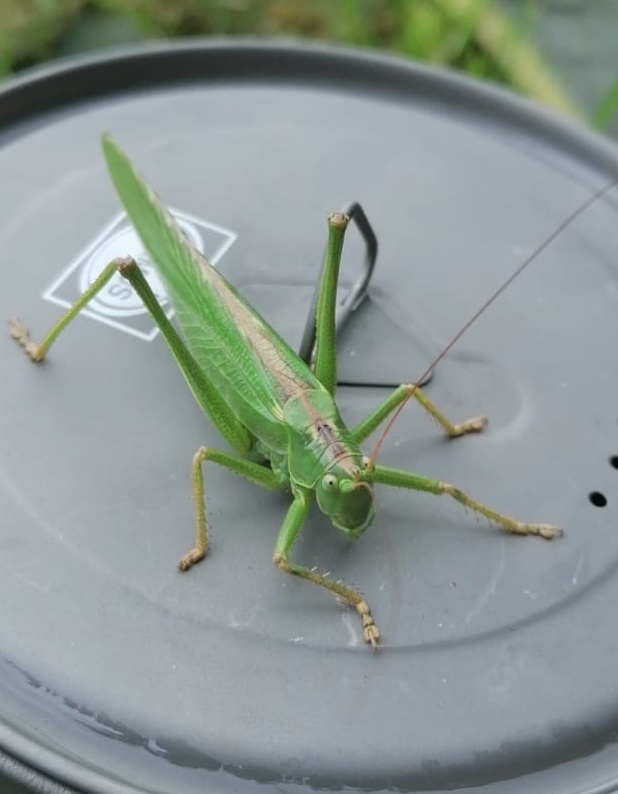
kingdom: Animalia
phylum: Arthropoda
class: Insecta
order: Orthoptera
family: Tettigoniidae
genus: Tettigonia
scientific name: Tettigonia viridissima
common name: Great green bush-cricket
